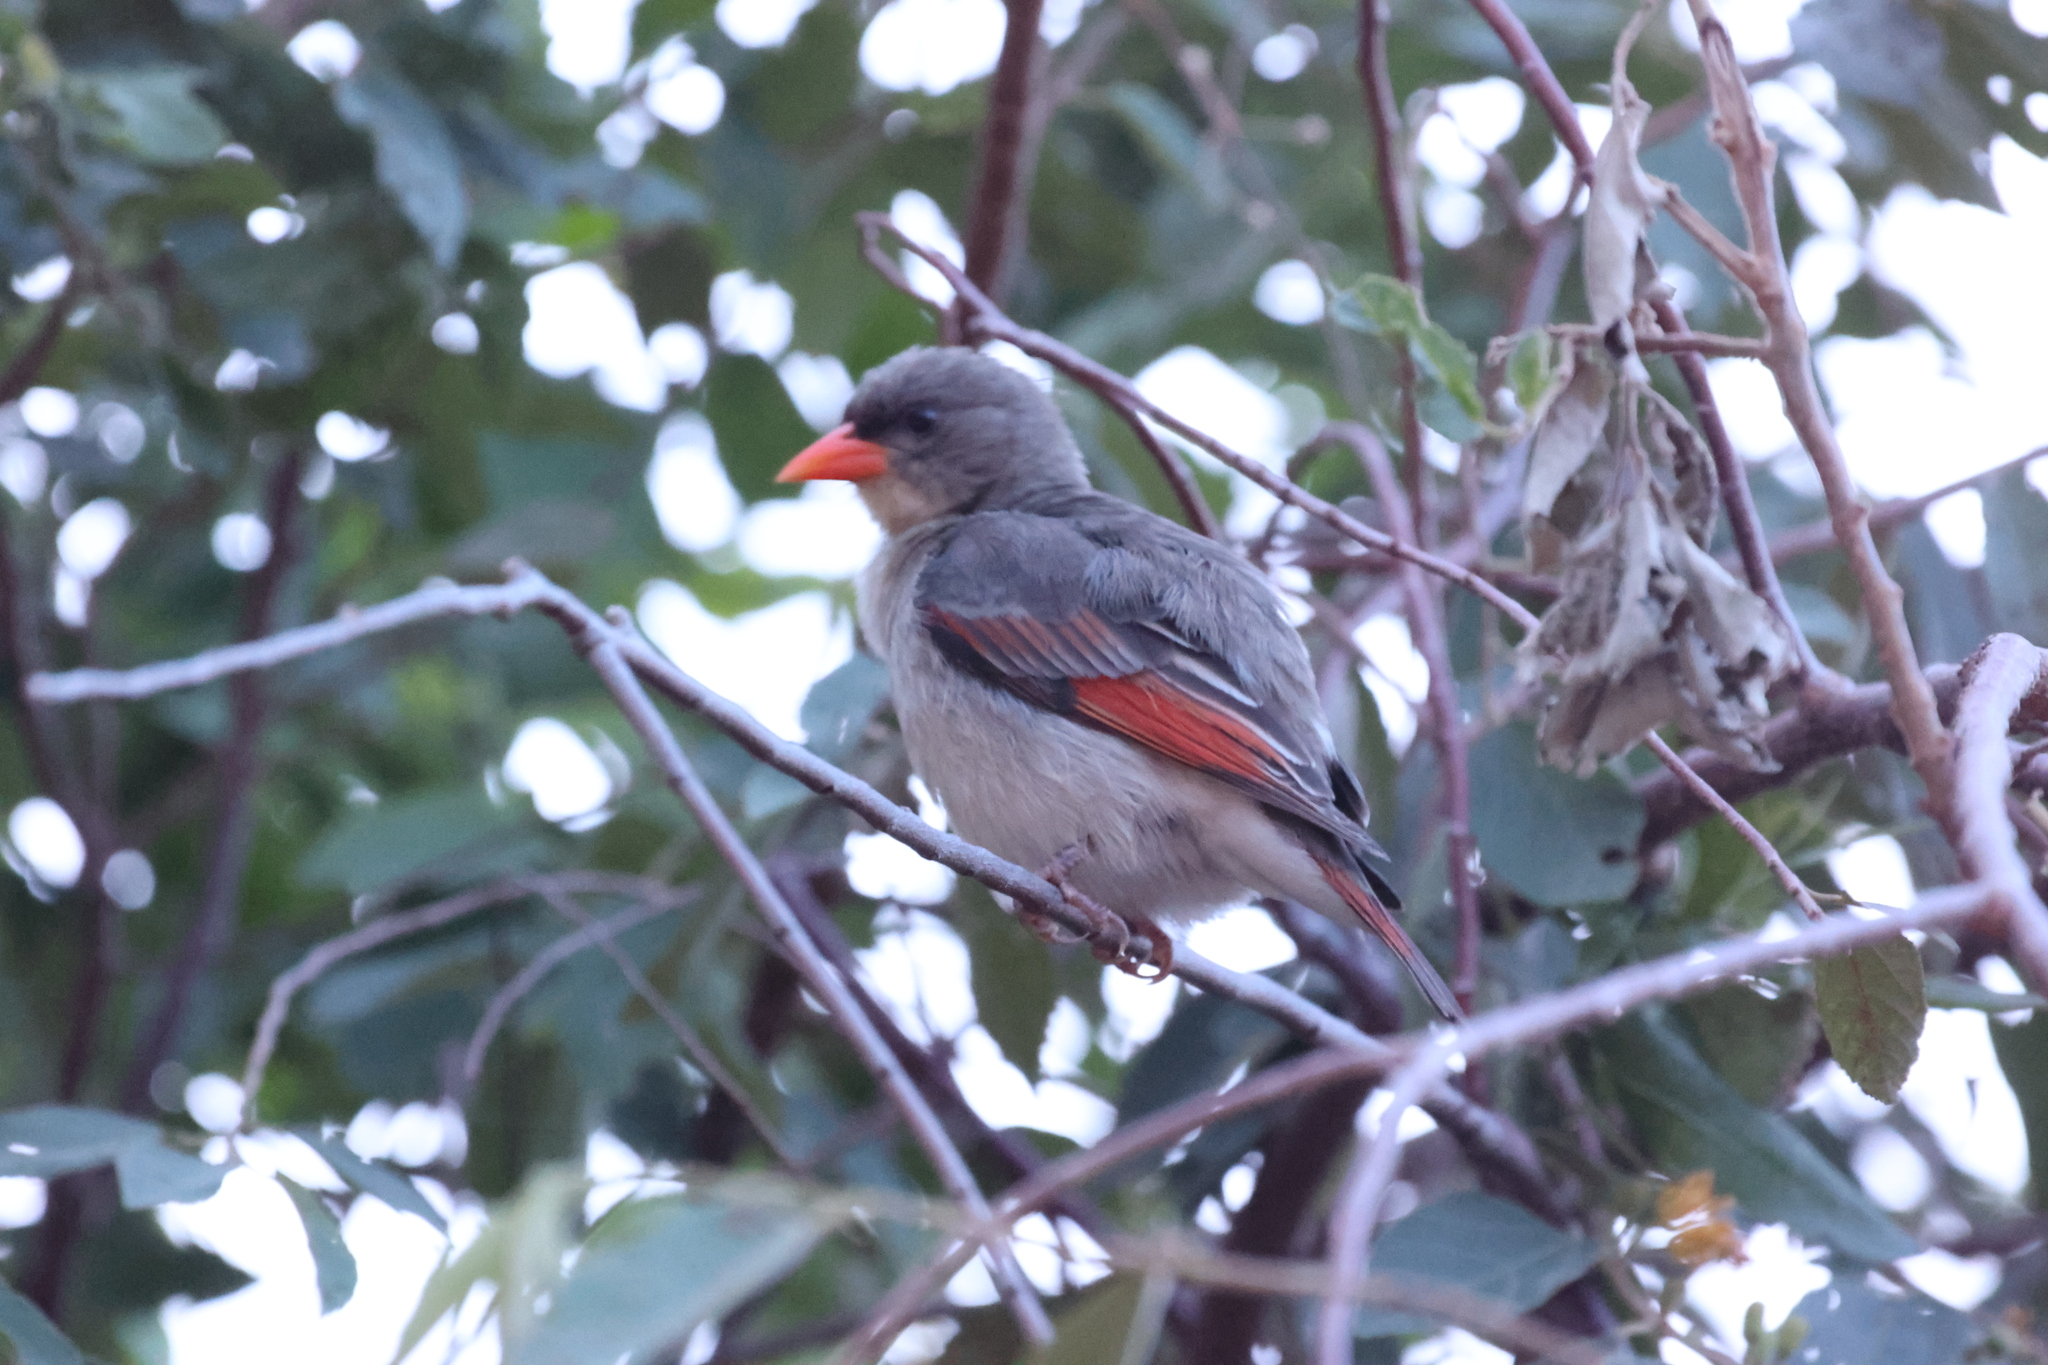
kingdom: Animalia
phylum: Chordata
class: Aves
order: Passeriformes
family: Ploceidae
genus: Anaplectes
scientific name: Anaplectes rubriceps
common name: Red-headed weaver
